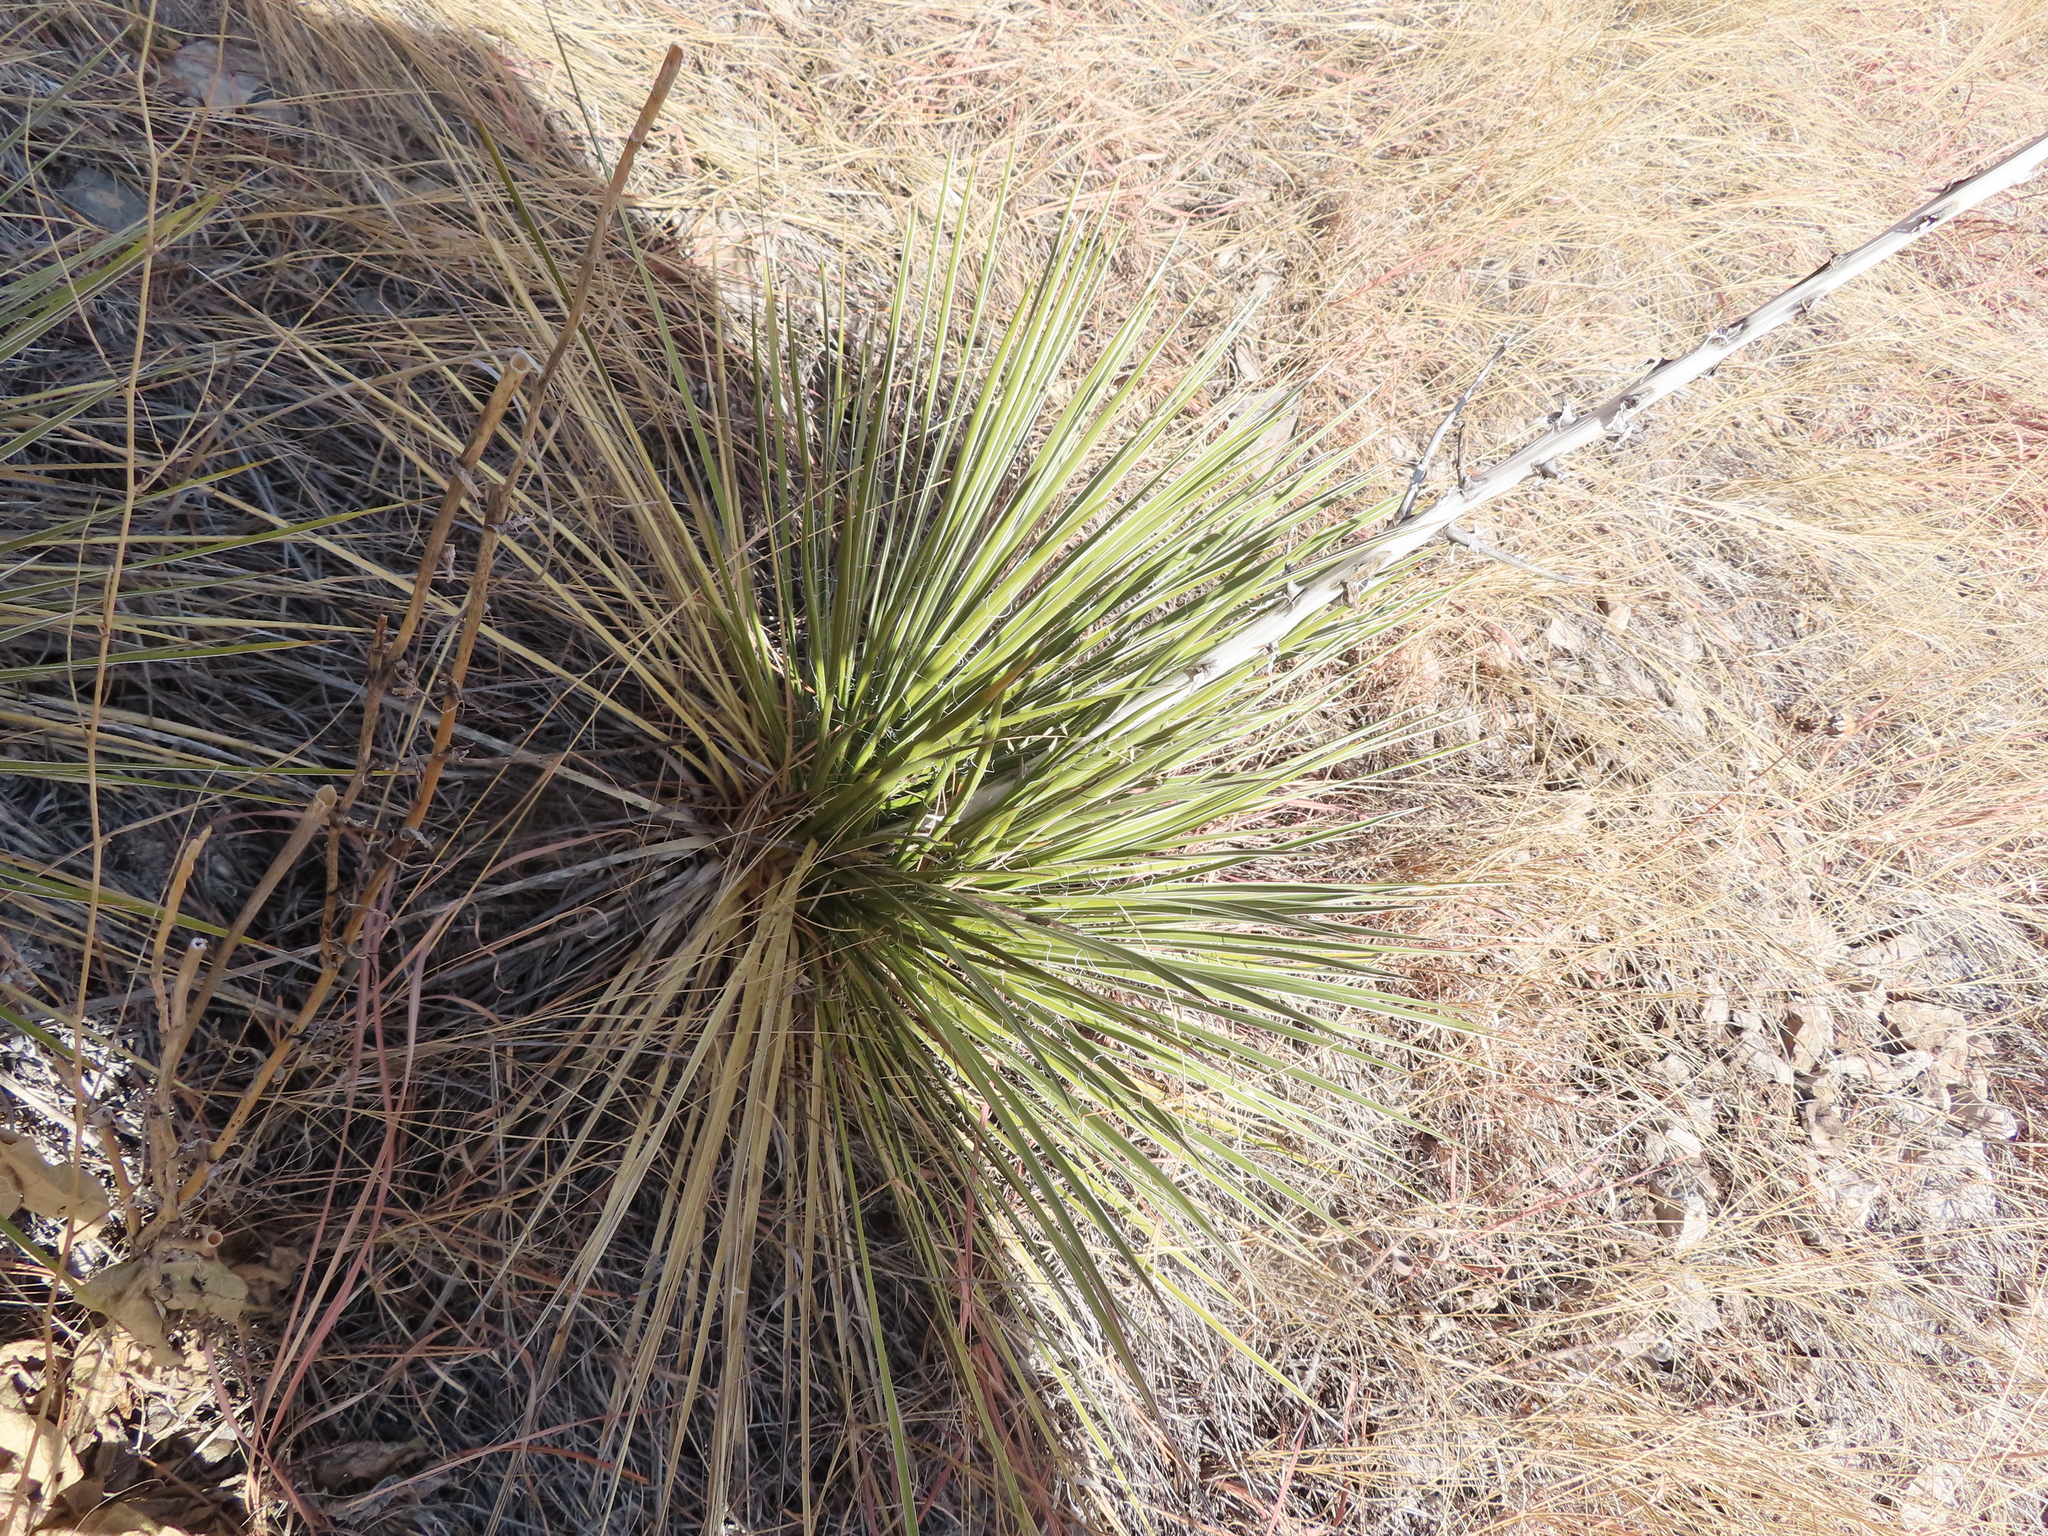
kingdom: Plantae
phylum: Tracheophyta
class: Liliopsida
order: Asparagales
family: Asparagaceae
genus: Yucca
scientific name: Yucca glauca
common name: Great plains yucca
